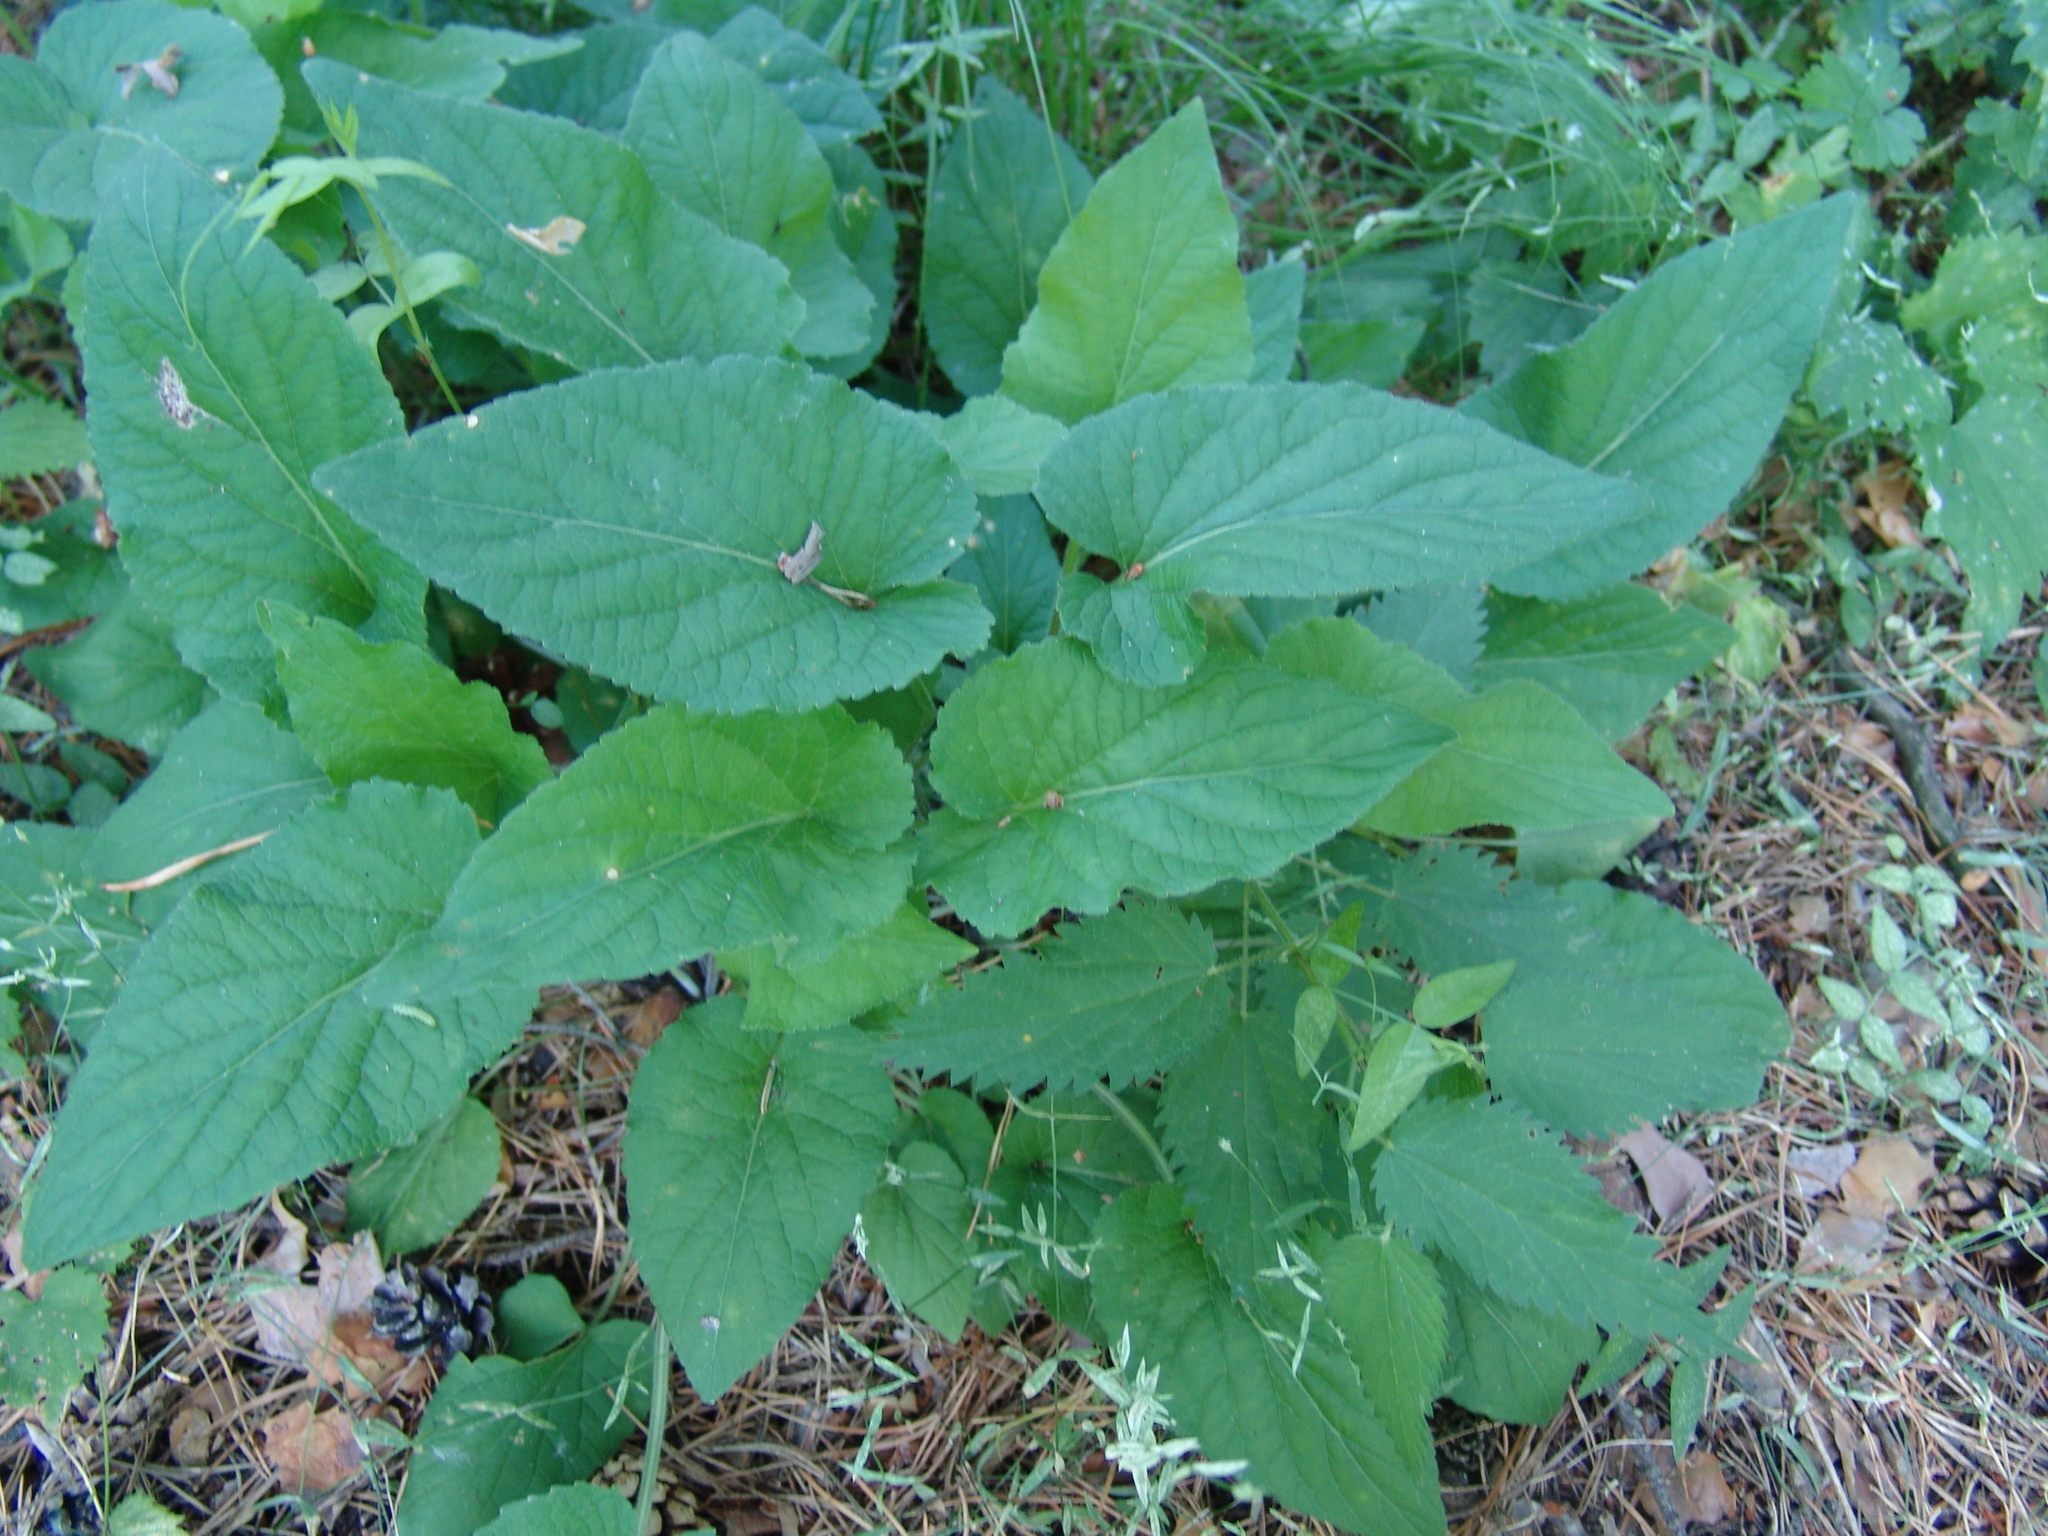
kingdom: Plantae
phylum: Tracheophyta
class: Magnoliopsida
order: Malpighiales
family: Violaceae
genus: Viola
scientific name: Viola hirta
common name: Hairy violet
